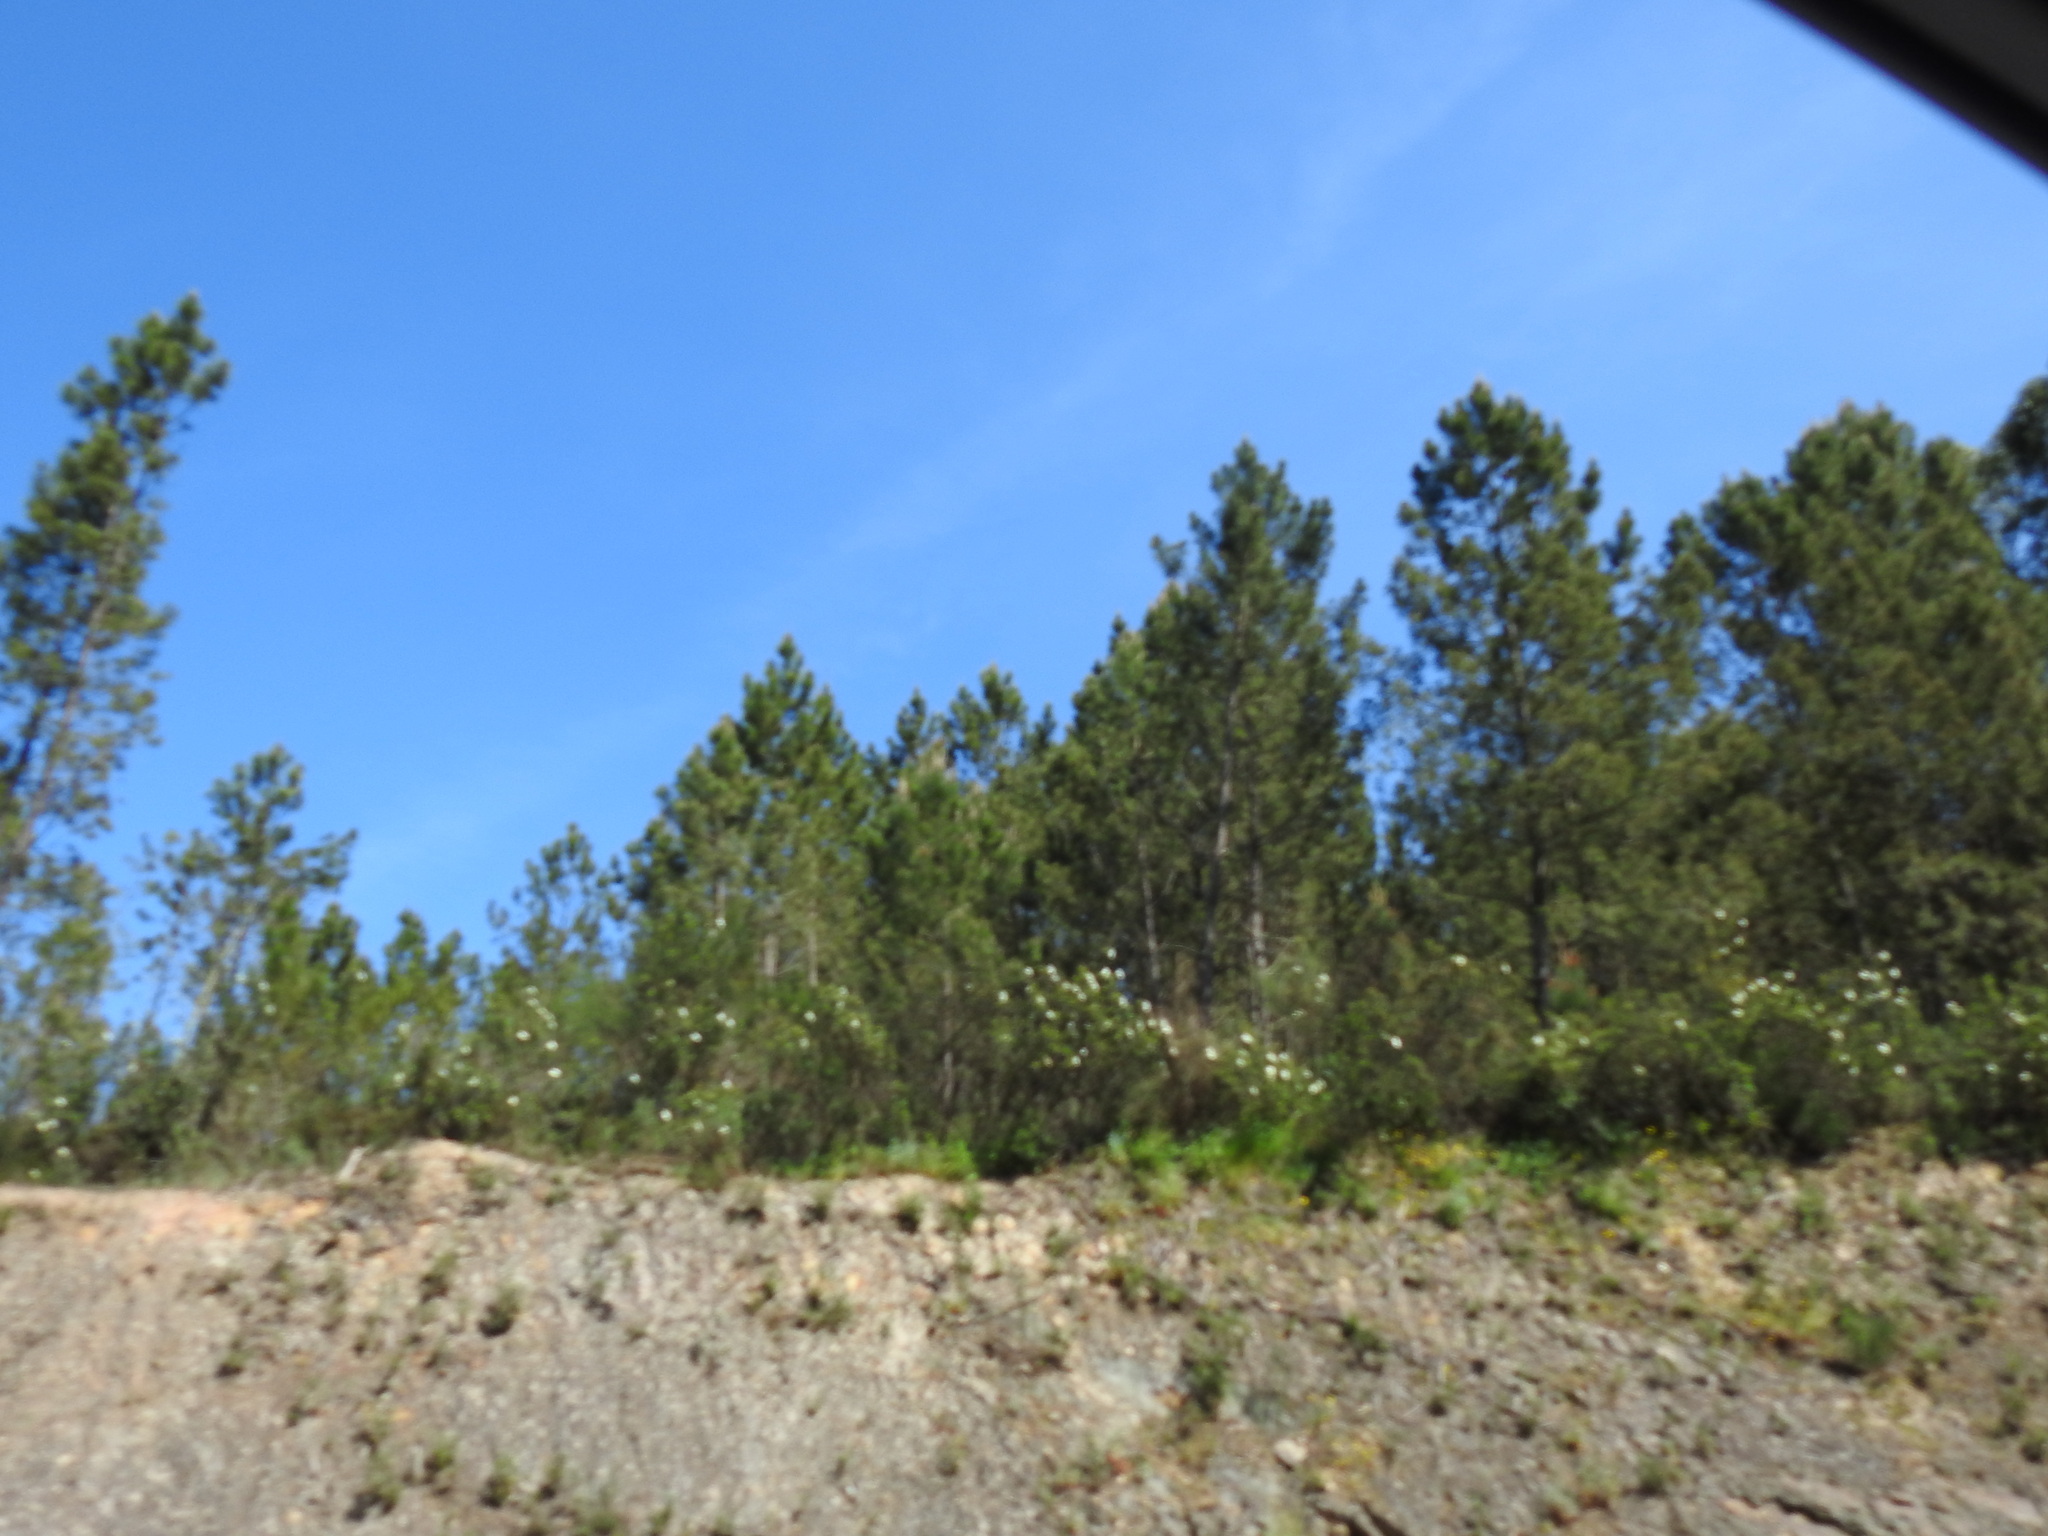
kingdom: Plantae
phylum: Tracheophyta
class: Pinopsida
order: Pinales
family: Pinaceae
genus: Pinus
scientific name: Pinus pinaster
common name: Maritime pine
